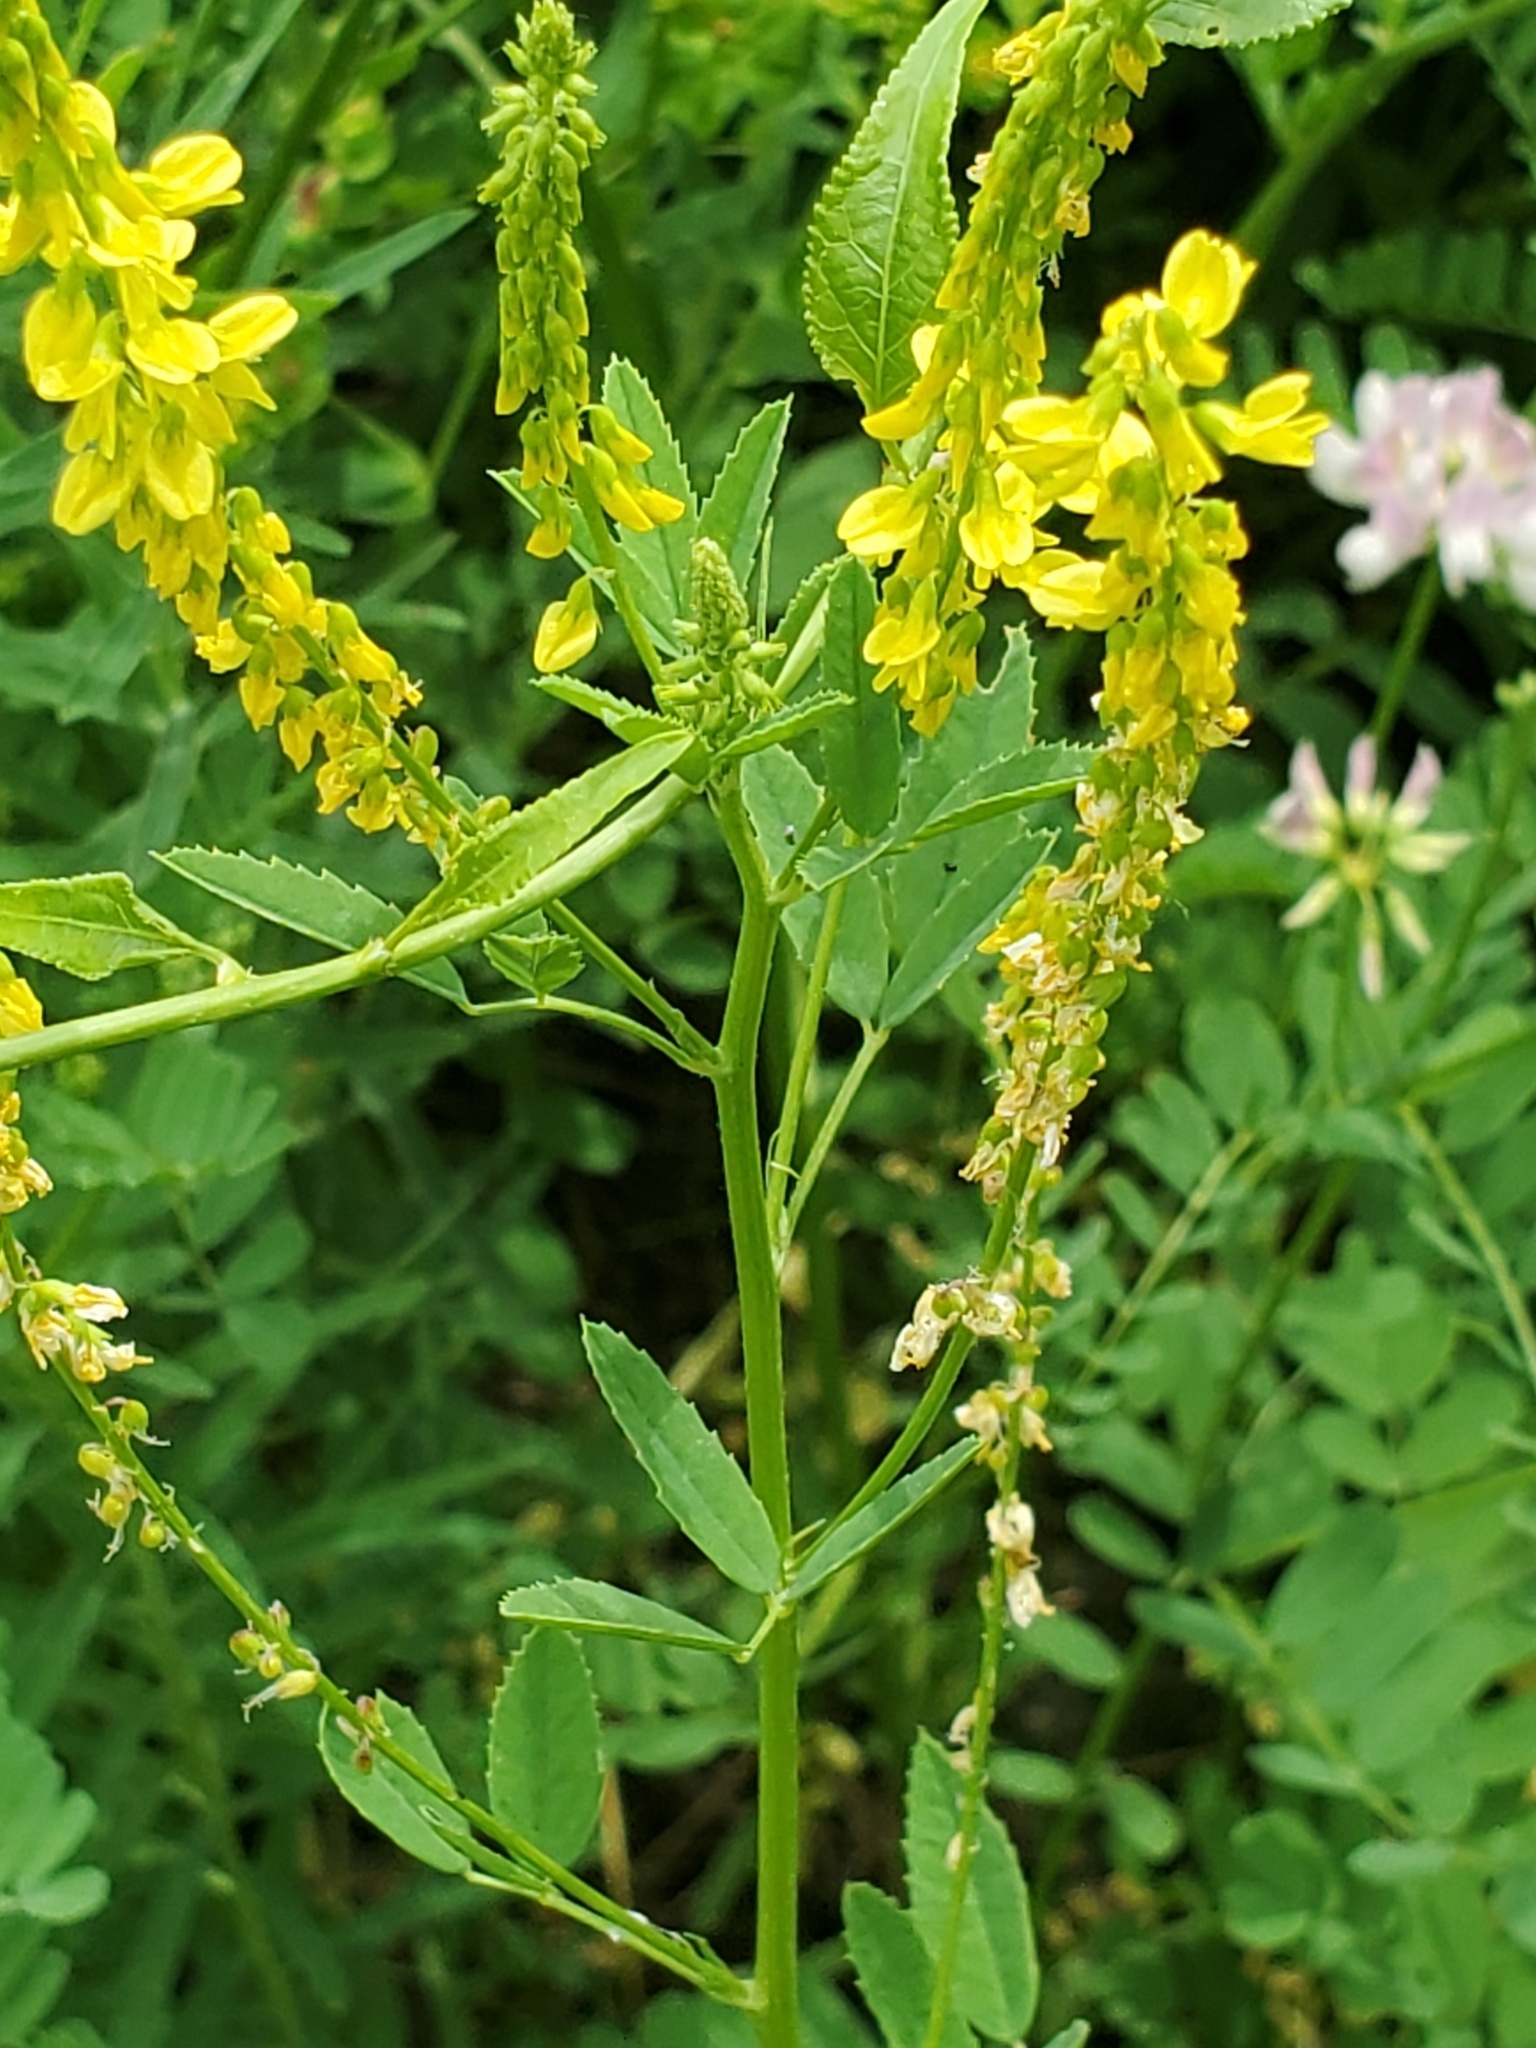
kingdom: Plantae
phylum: Tracheophyta
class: Magnoliopsida
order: Fabales
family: Fabaceae
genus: Melilotus
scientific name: Melilotus officinalis
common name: Sweetclover
